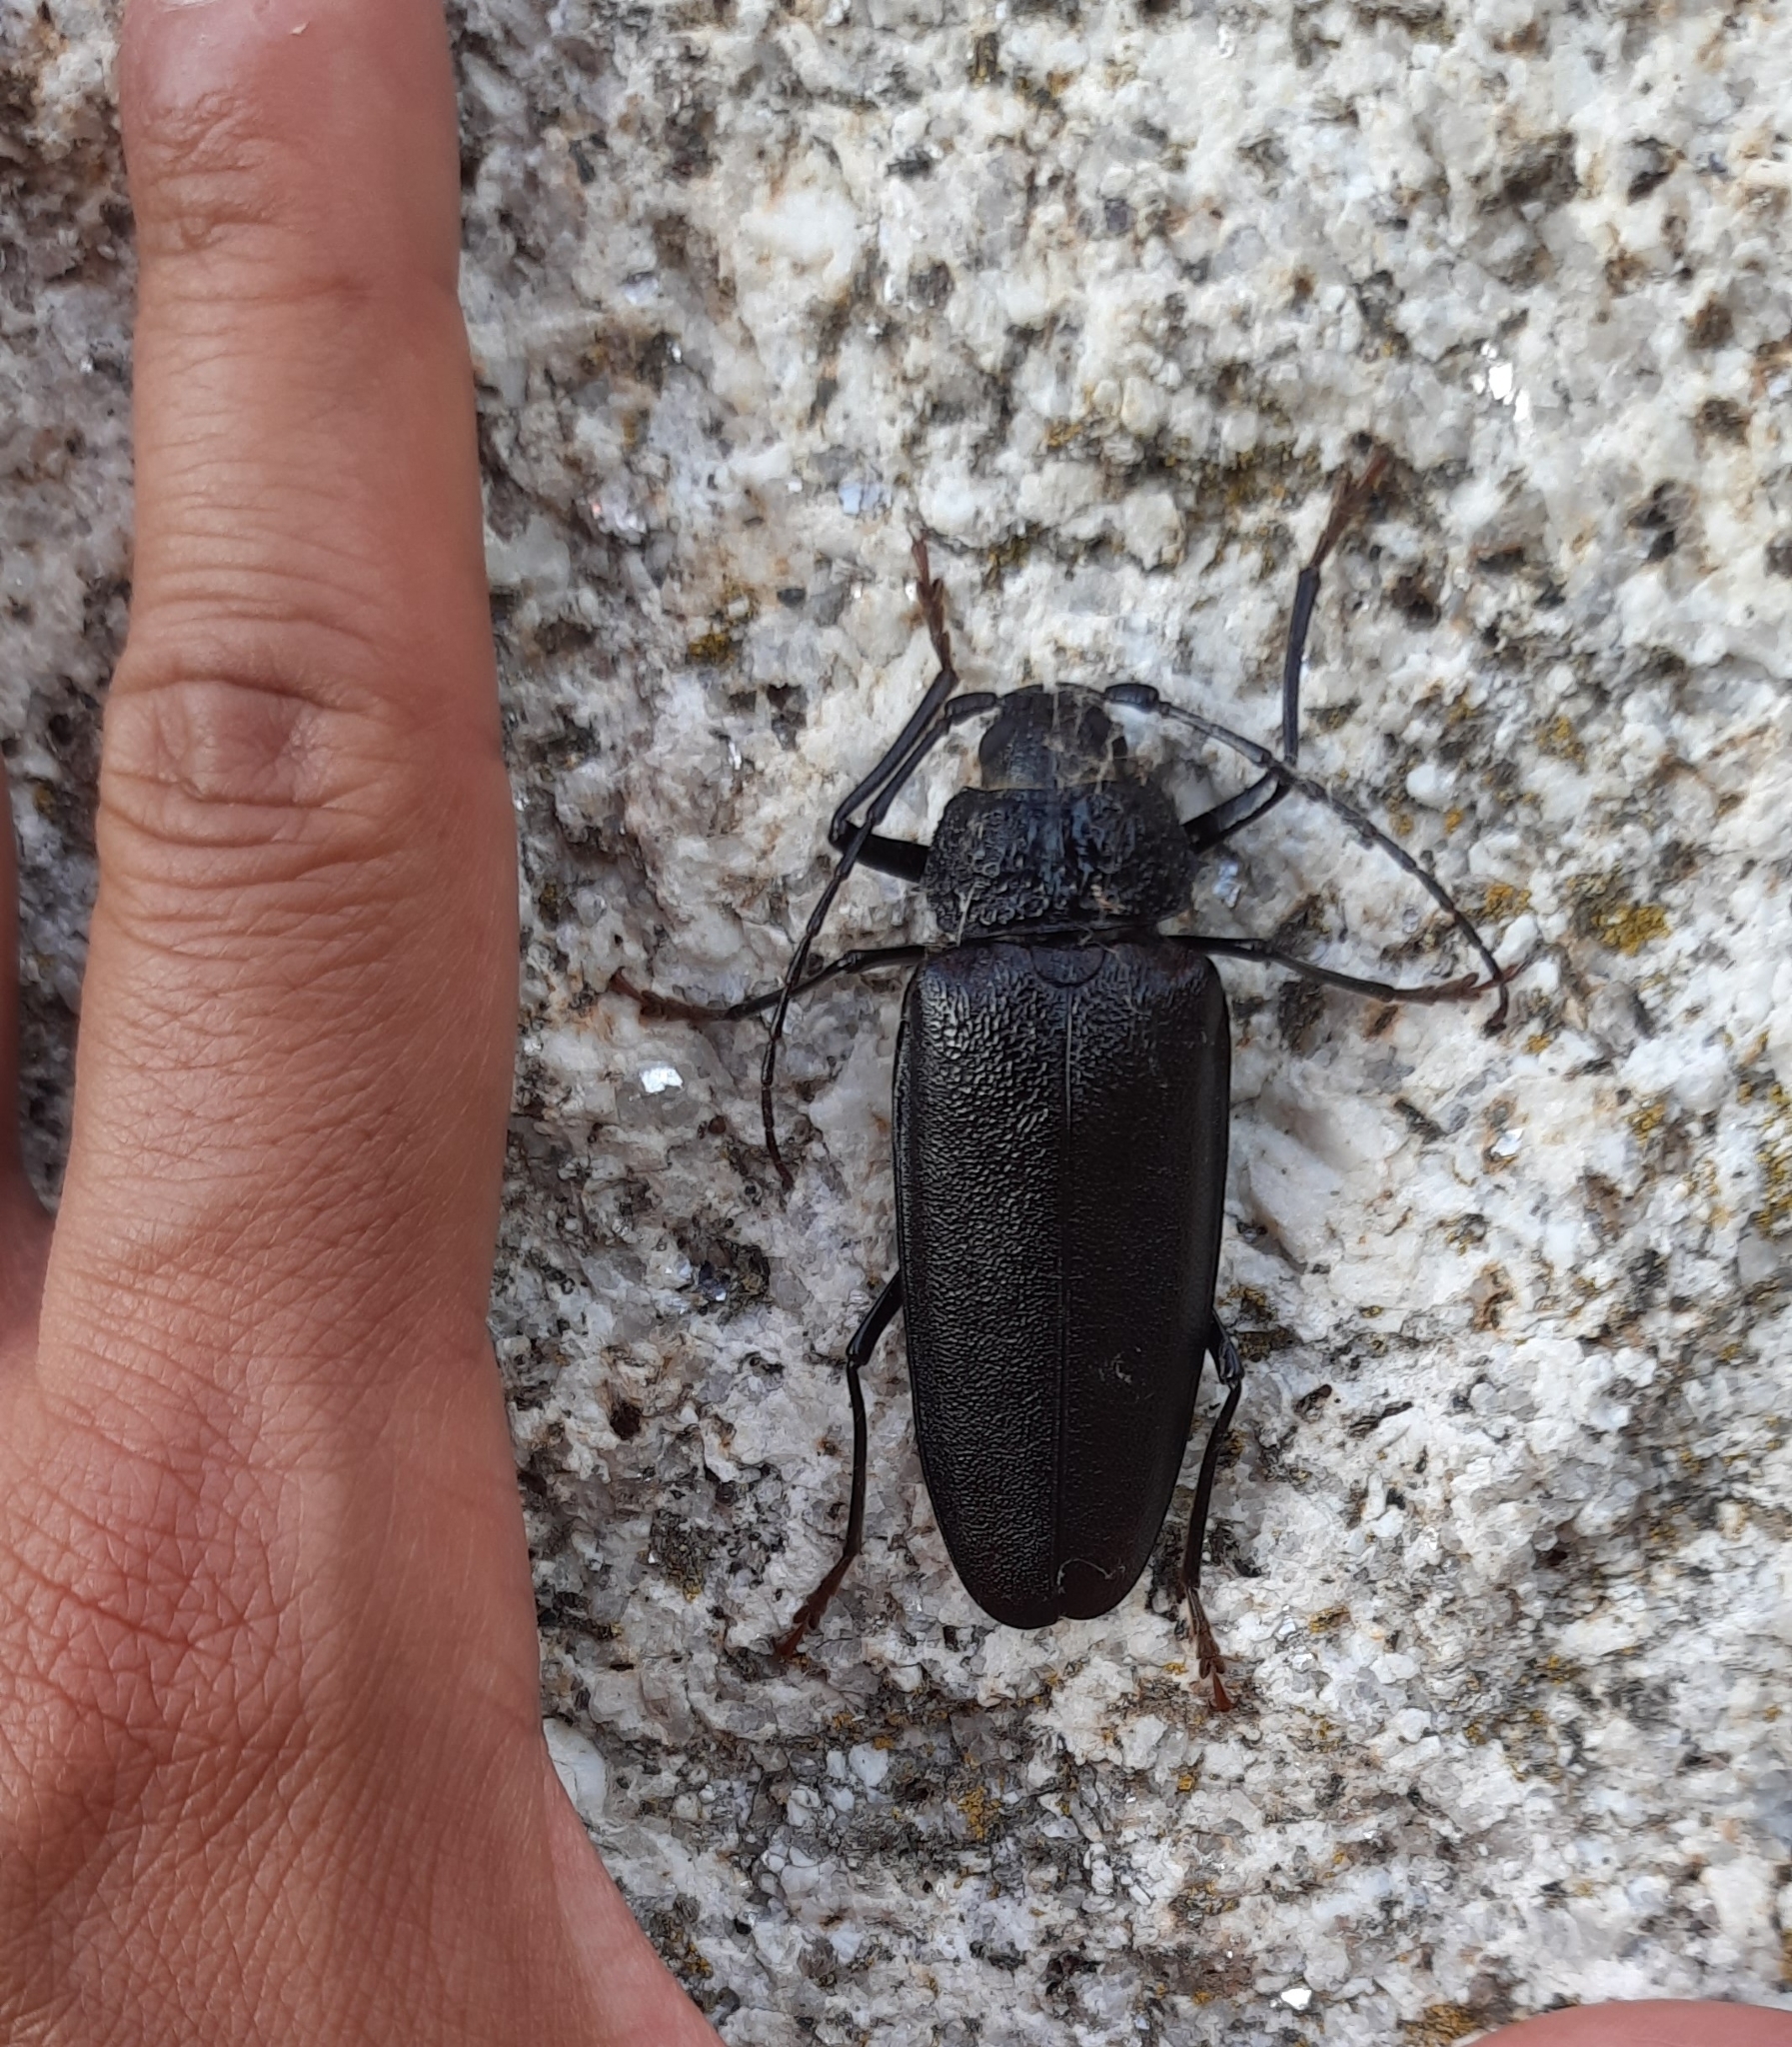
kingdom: Animalia
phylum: Arthropoda
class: Insecta
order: Coleoptera
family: Cerambycidae
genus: Ergates
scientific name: Ergates faber
